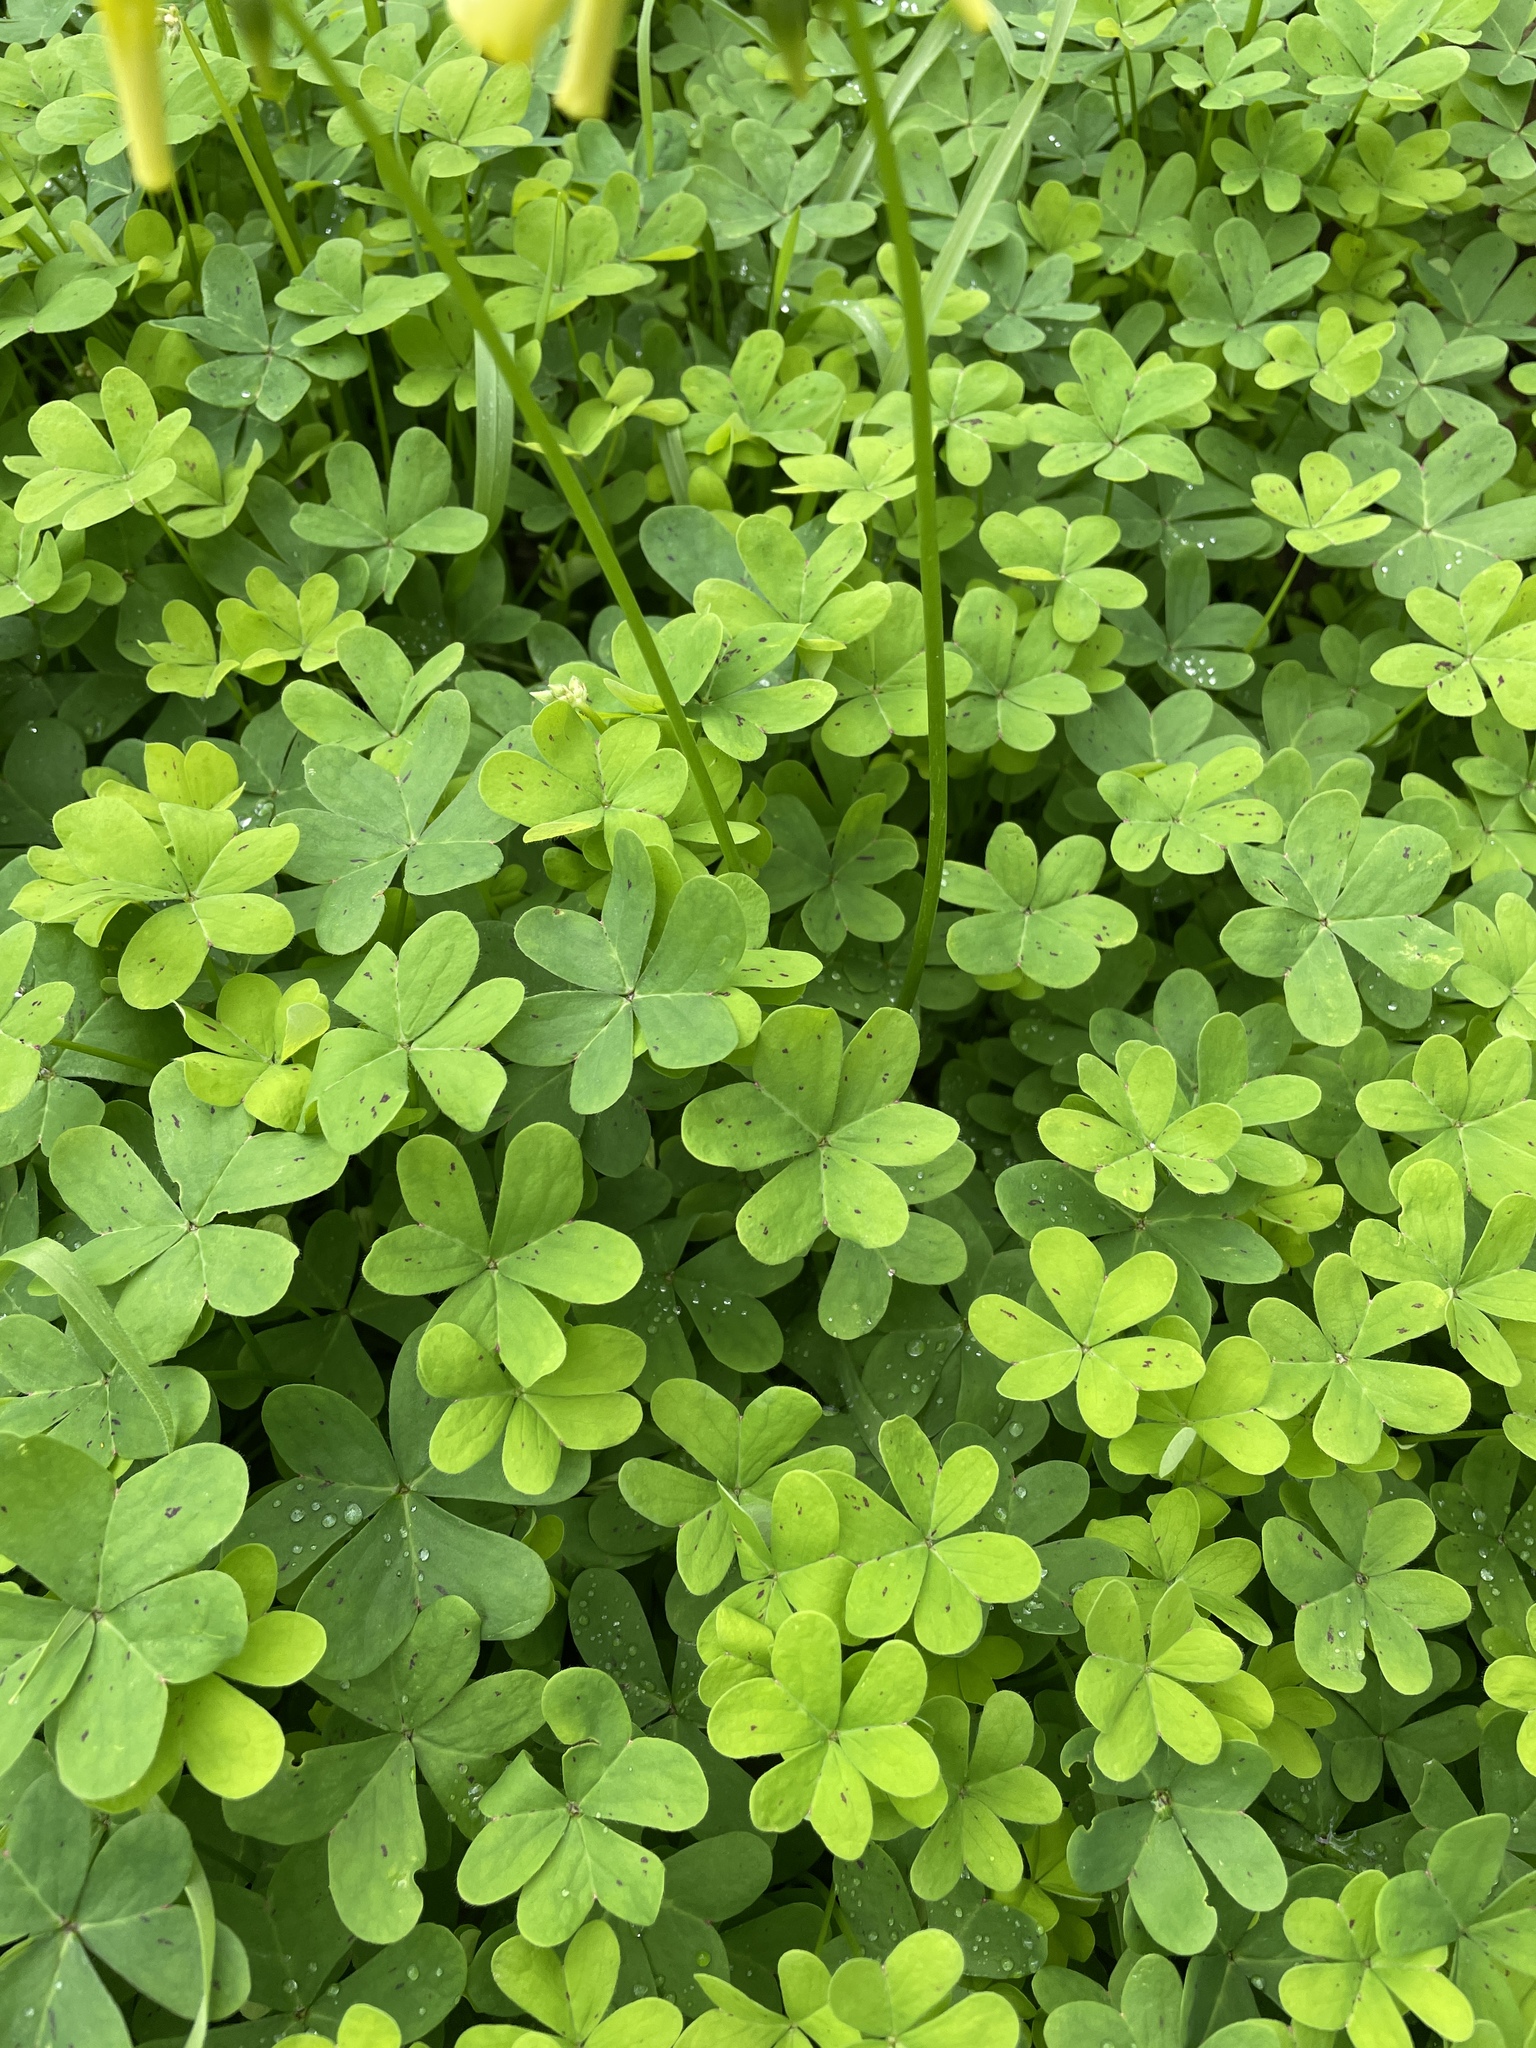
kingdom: Plantae
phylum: Tracheophyta
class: Magnoliopsida
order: Oxalidales
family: Oxalidaceae
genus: Oxalis
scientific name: Oxalis pes-caprae
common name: Bermuda-buttercup
